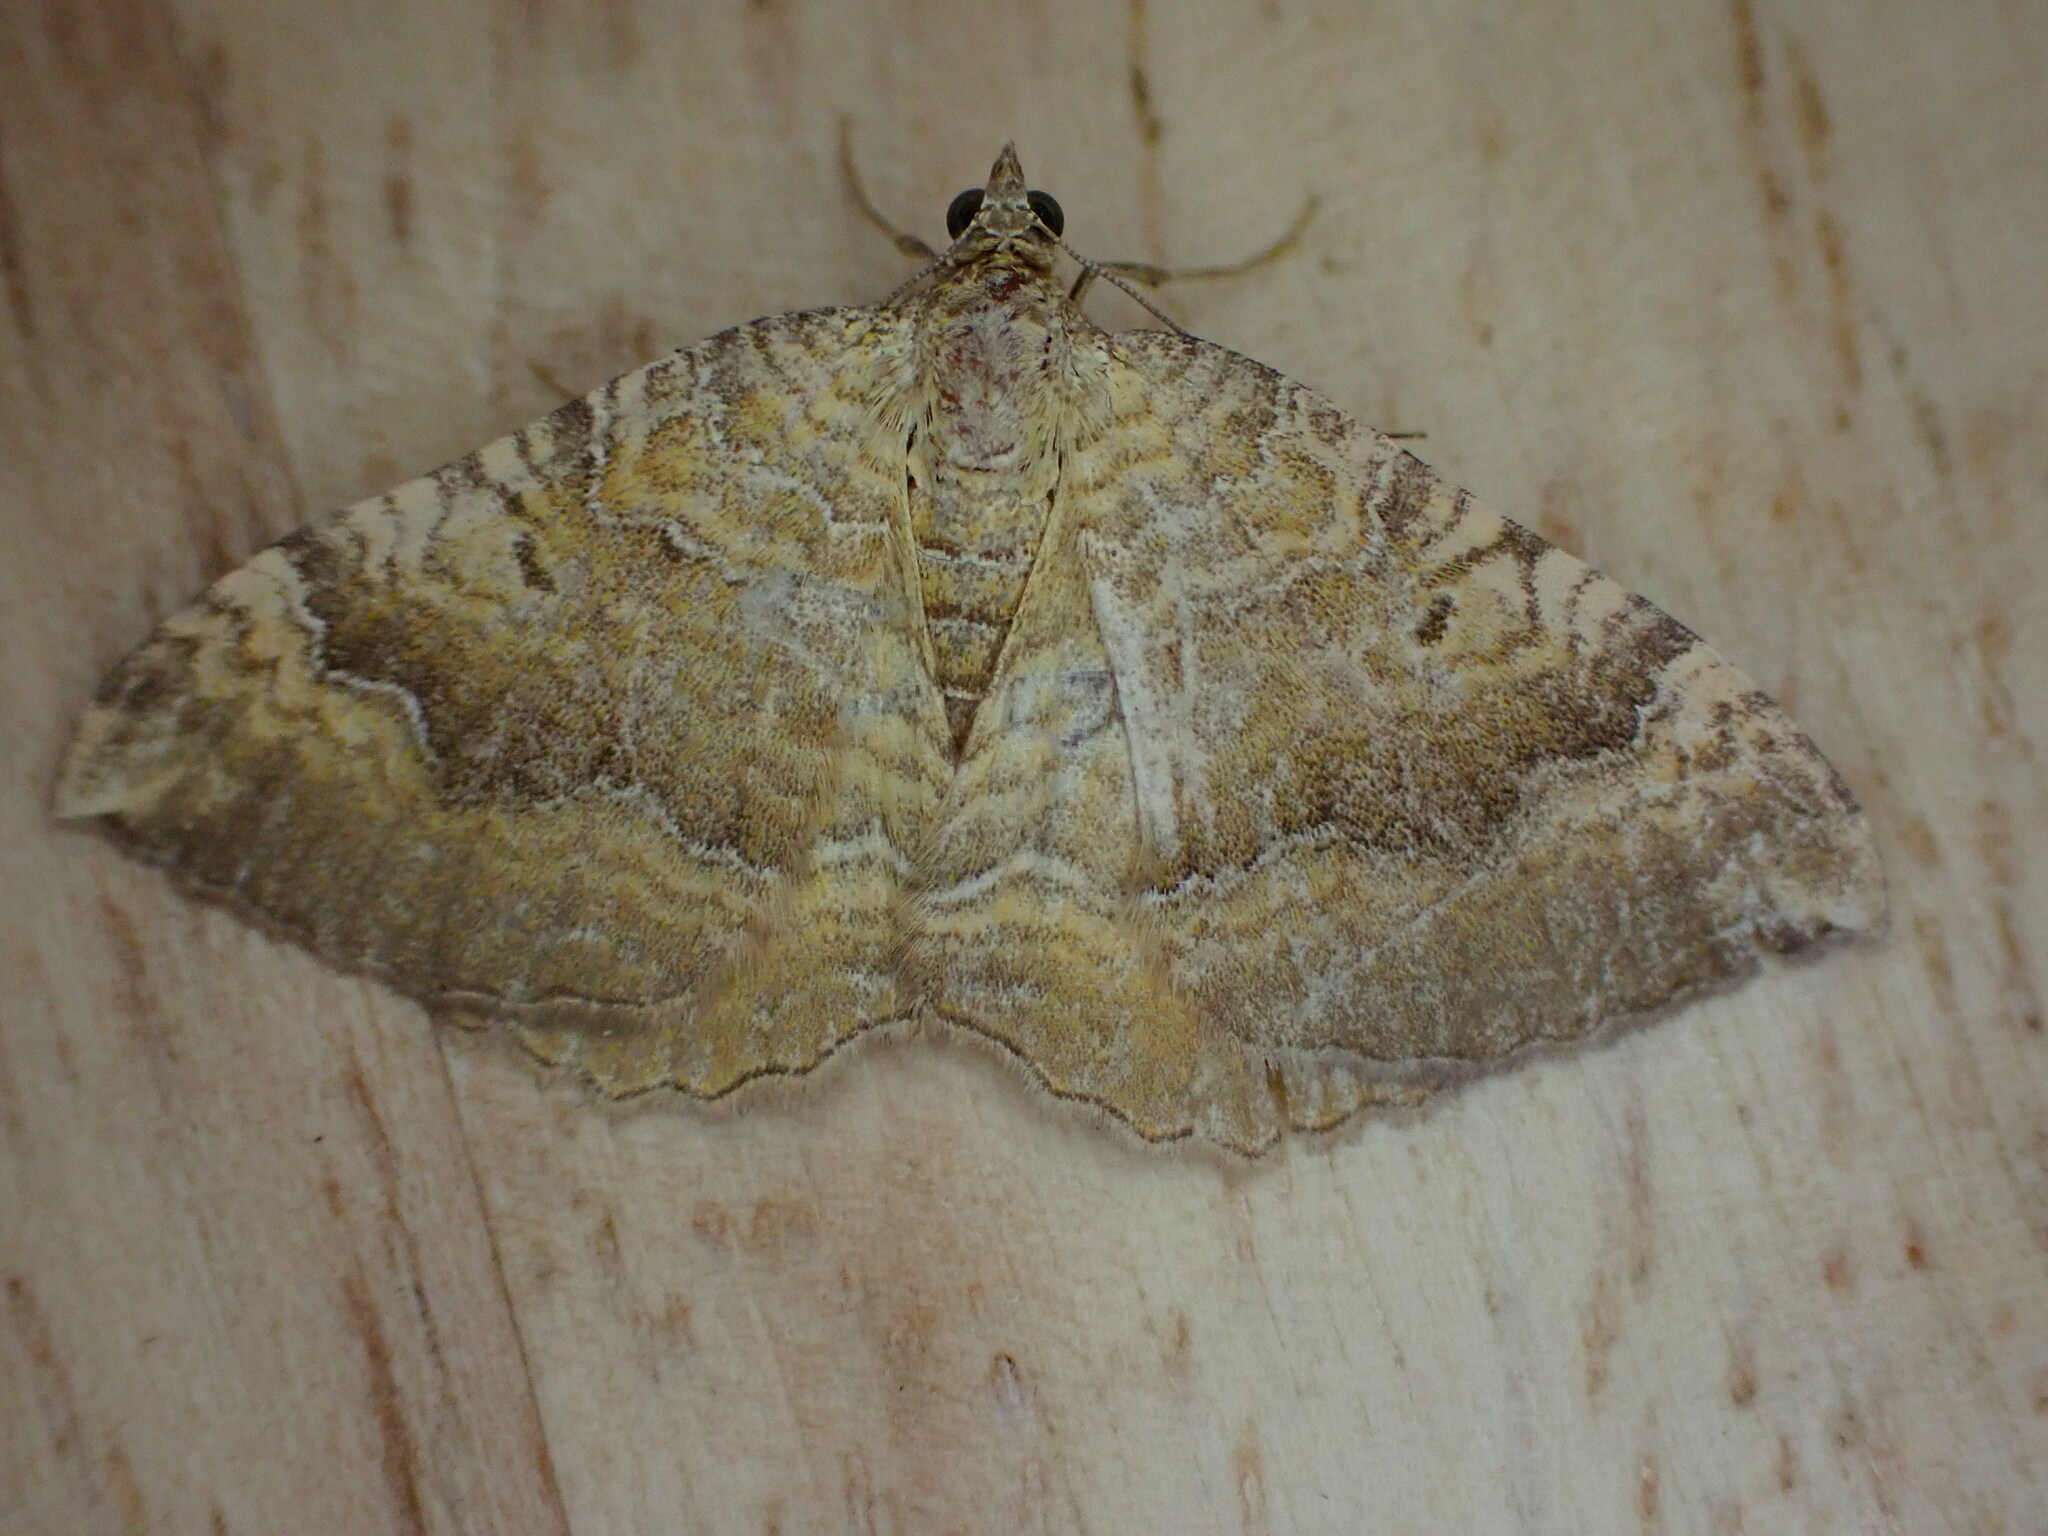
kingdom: Animalia
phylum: Arthropoda
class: Insecta
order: Lepidoptera
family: Geometridae
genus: Camptogramma
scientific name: Camptogramma bilineata
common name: Yellow shell
